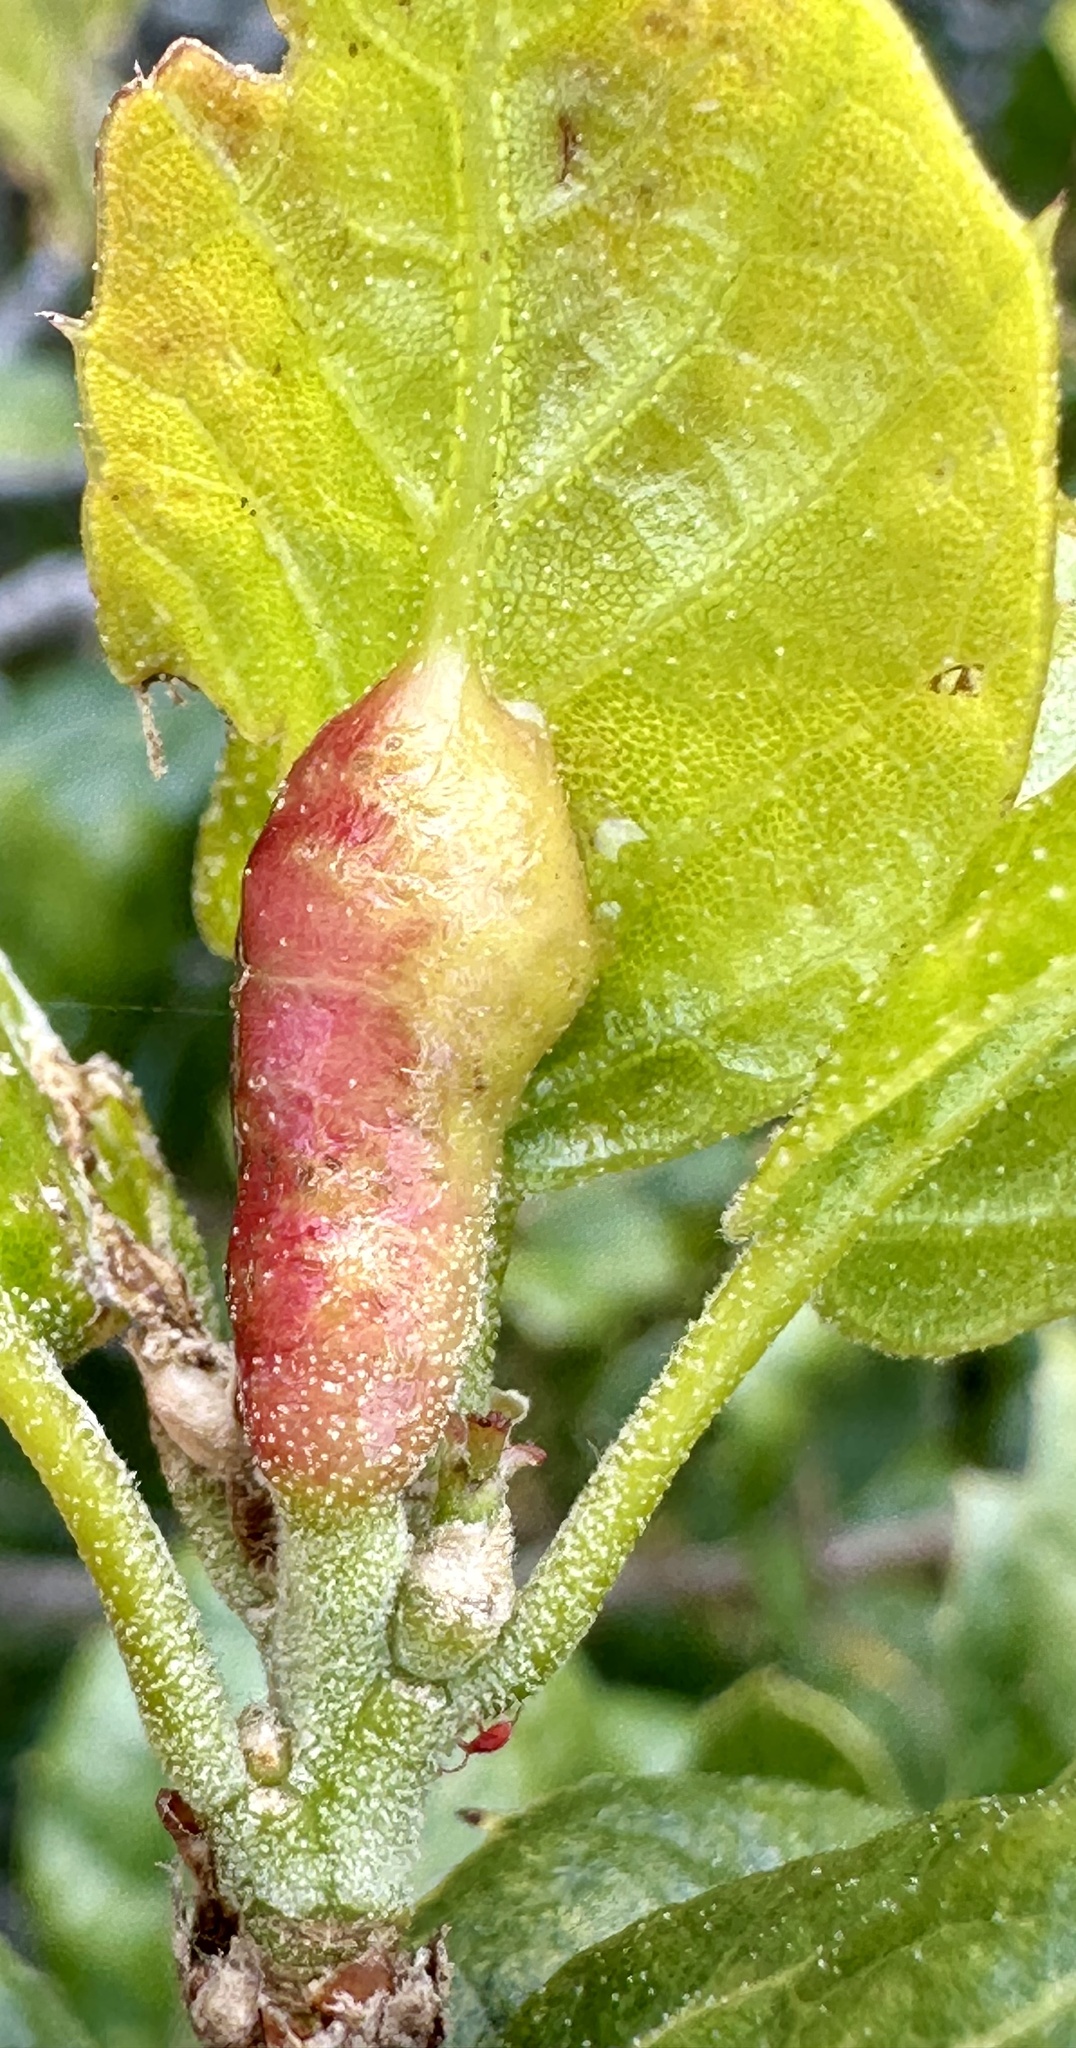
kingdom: Animalia
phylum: Arthropoda
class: Insecta
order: Hymenoptera
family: Cynipidae
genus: Melikaiella
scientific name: Melikaiella
